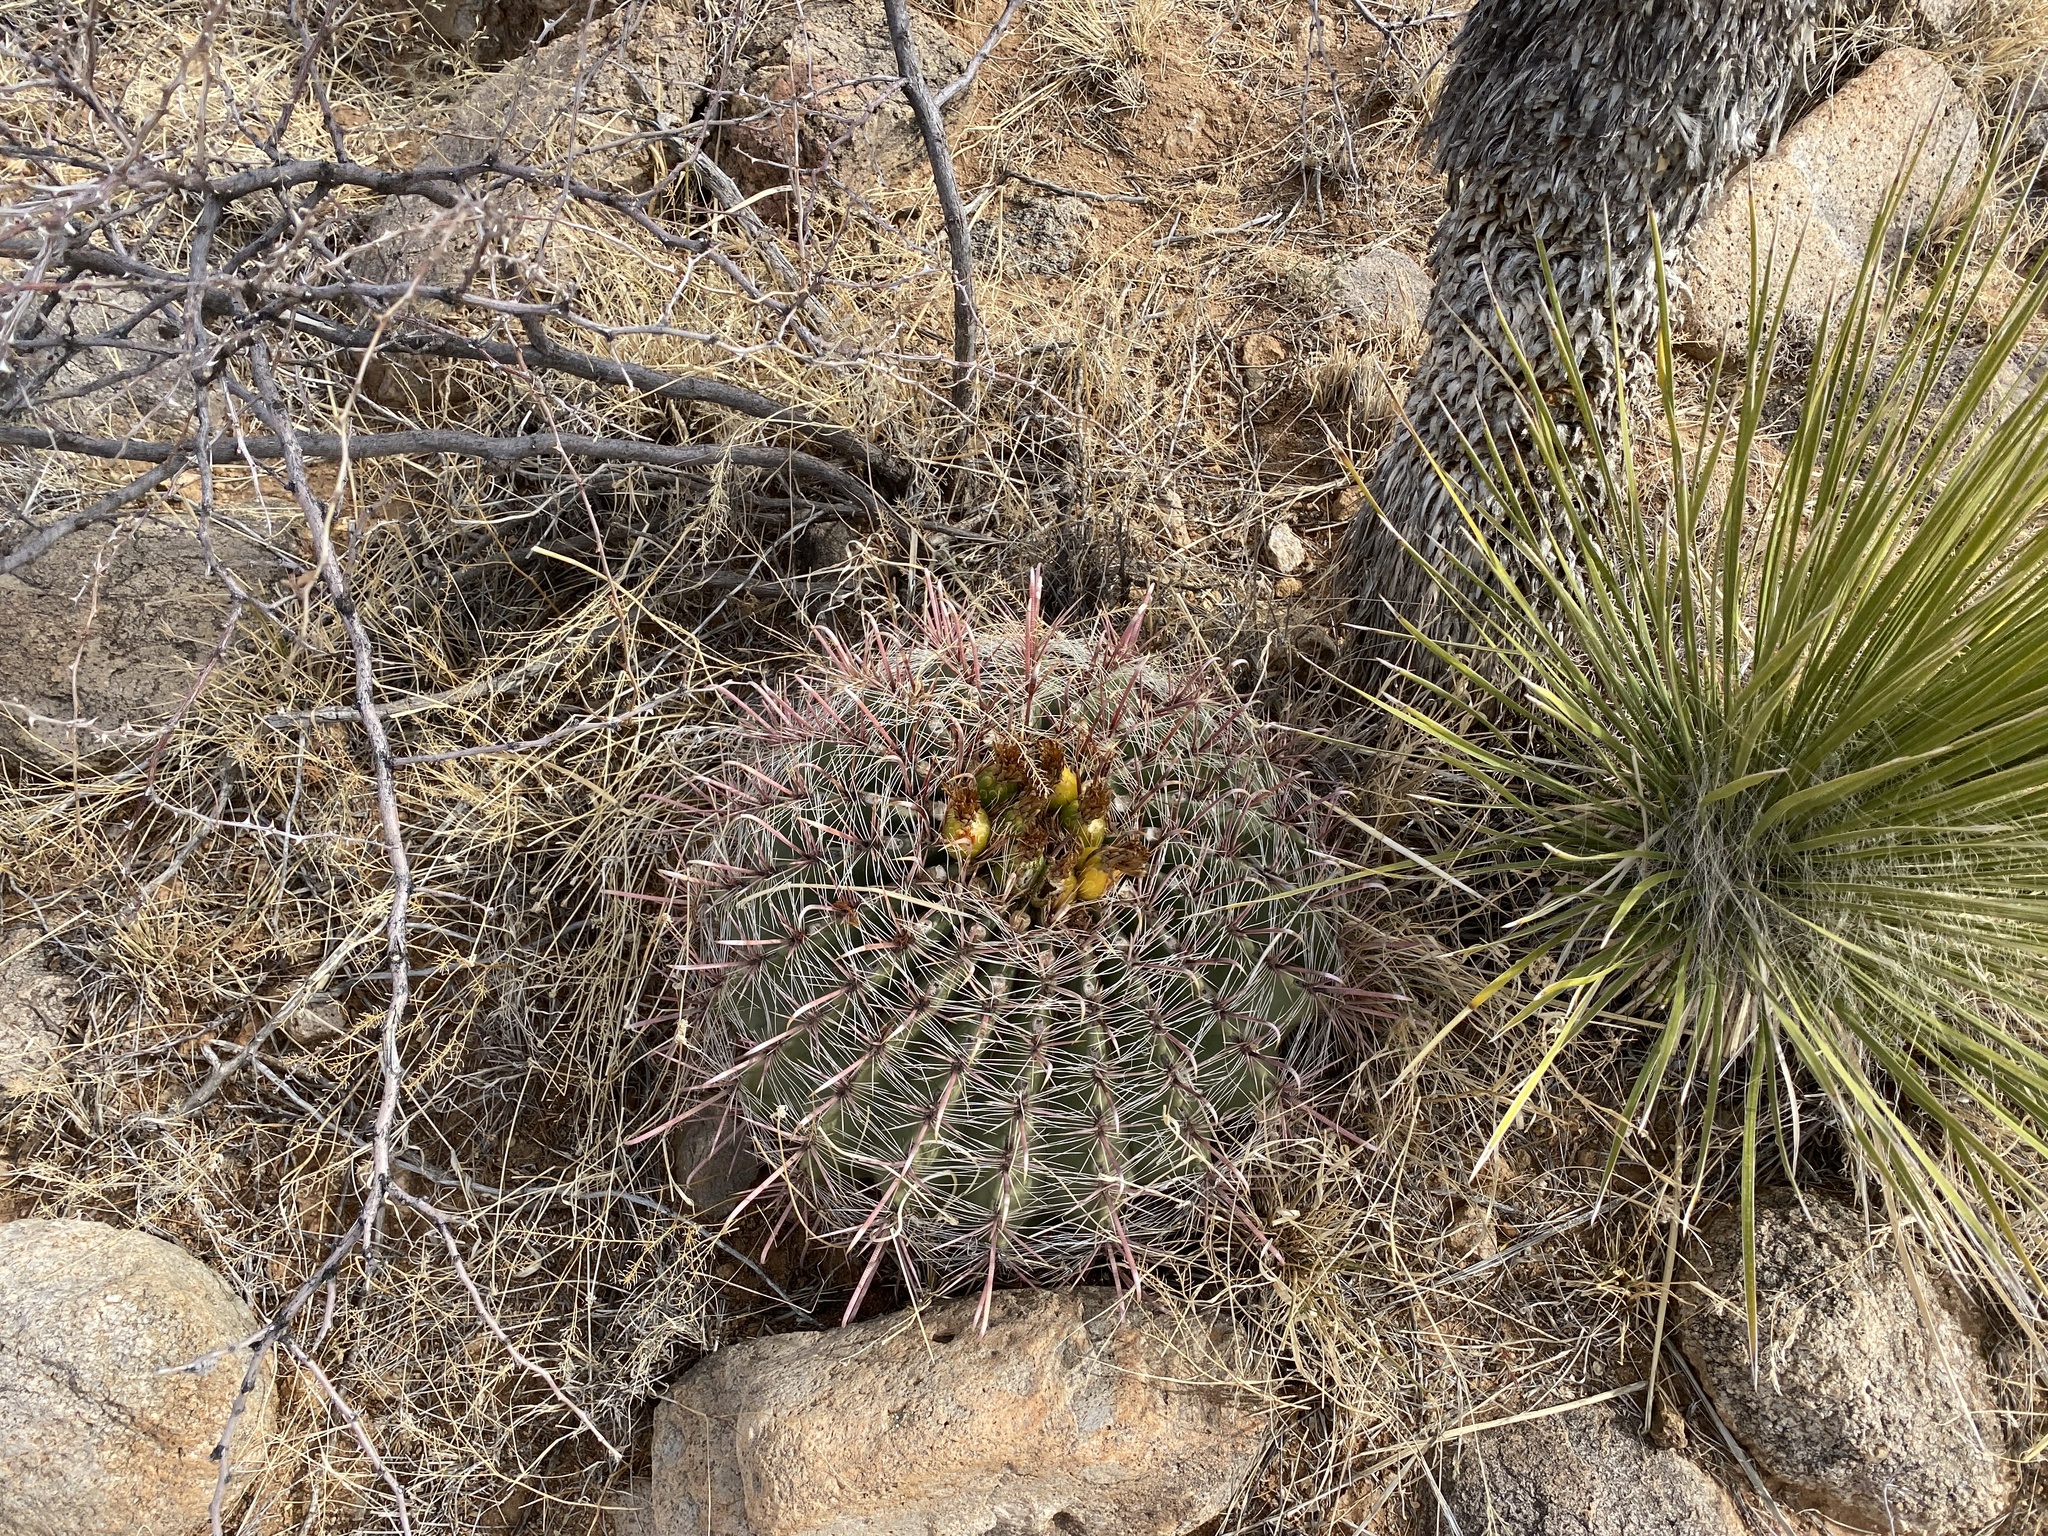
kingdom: Plantae
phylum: Tracheophyta
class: Magnoliopsida
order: Caryophyllales
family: Cactaceae
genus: Ferocactus
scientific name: Ferocactus wislizeni
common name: Candy barrel cactus
